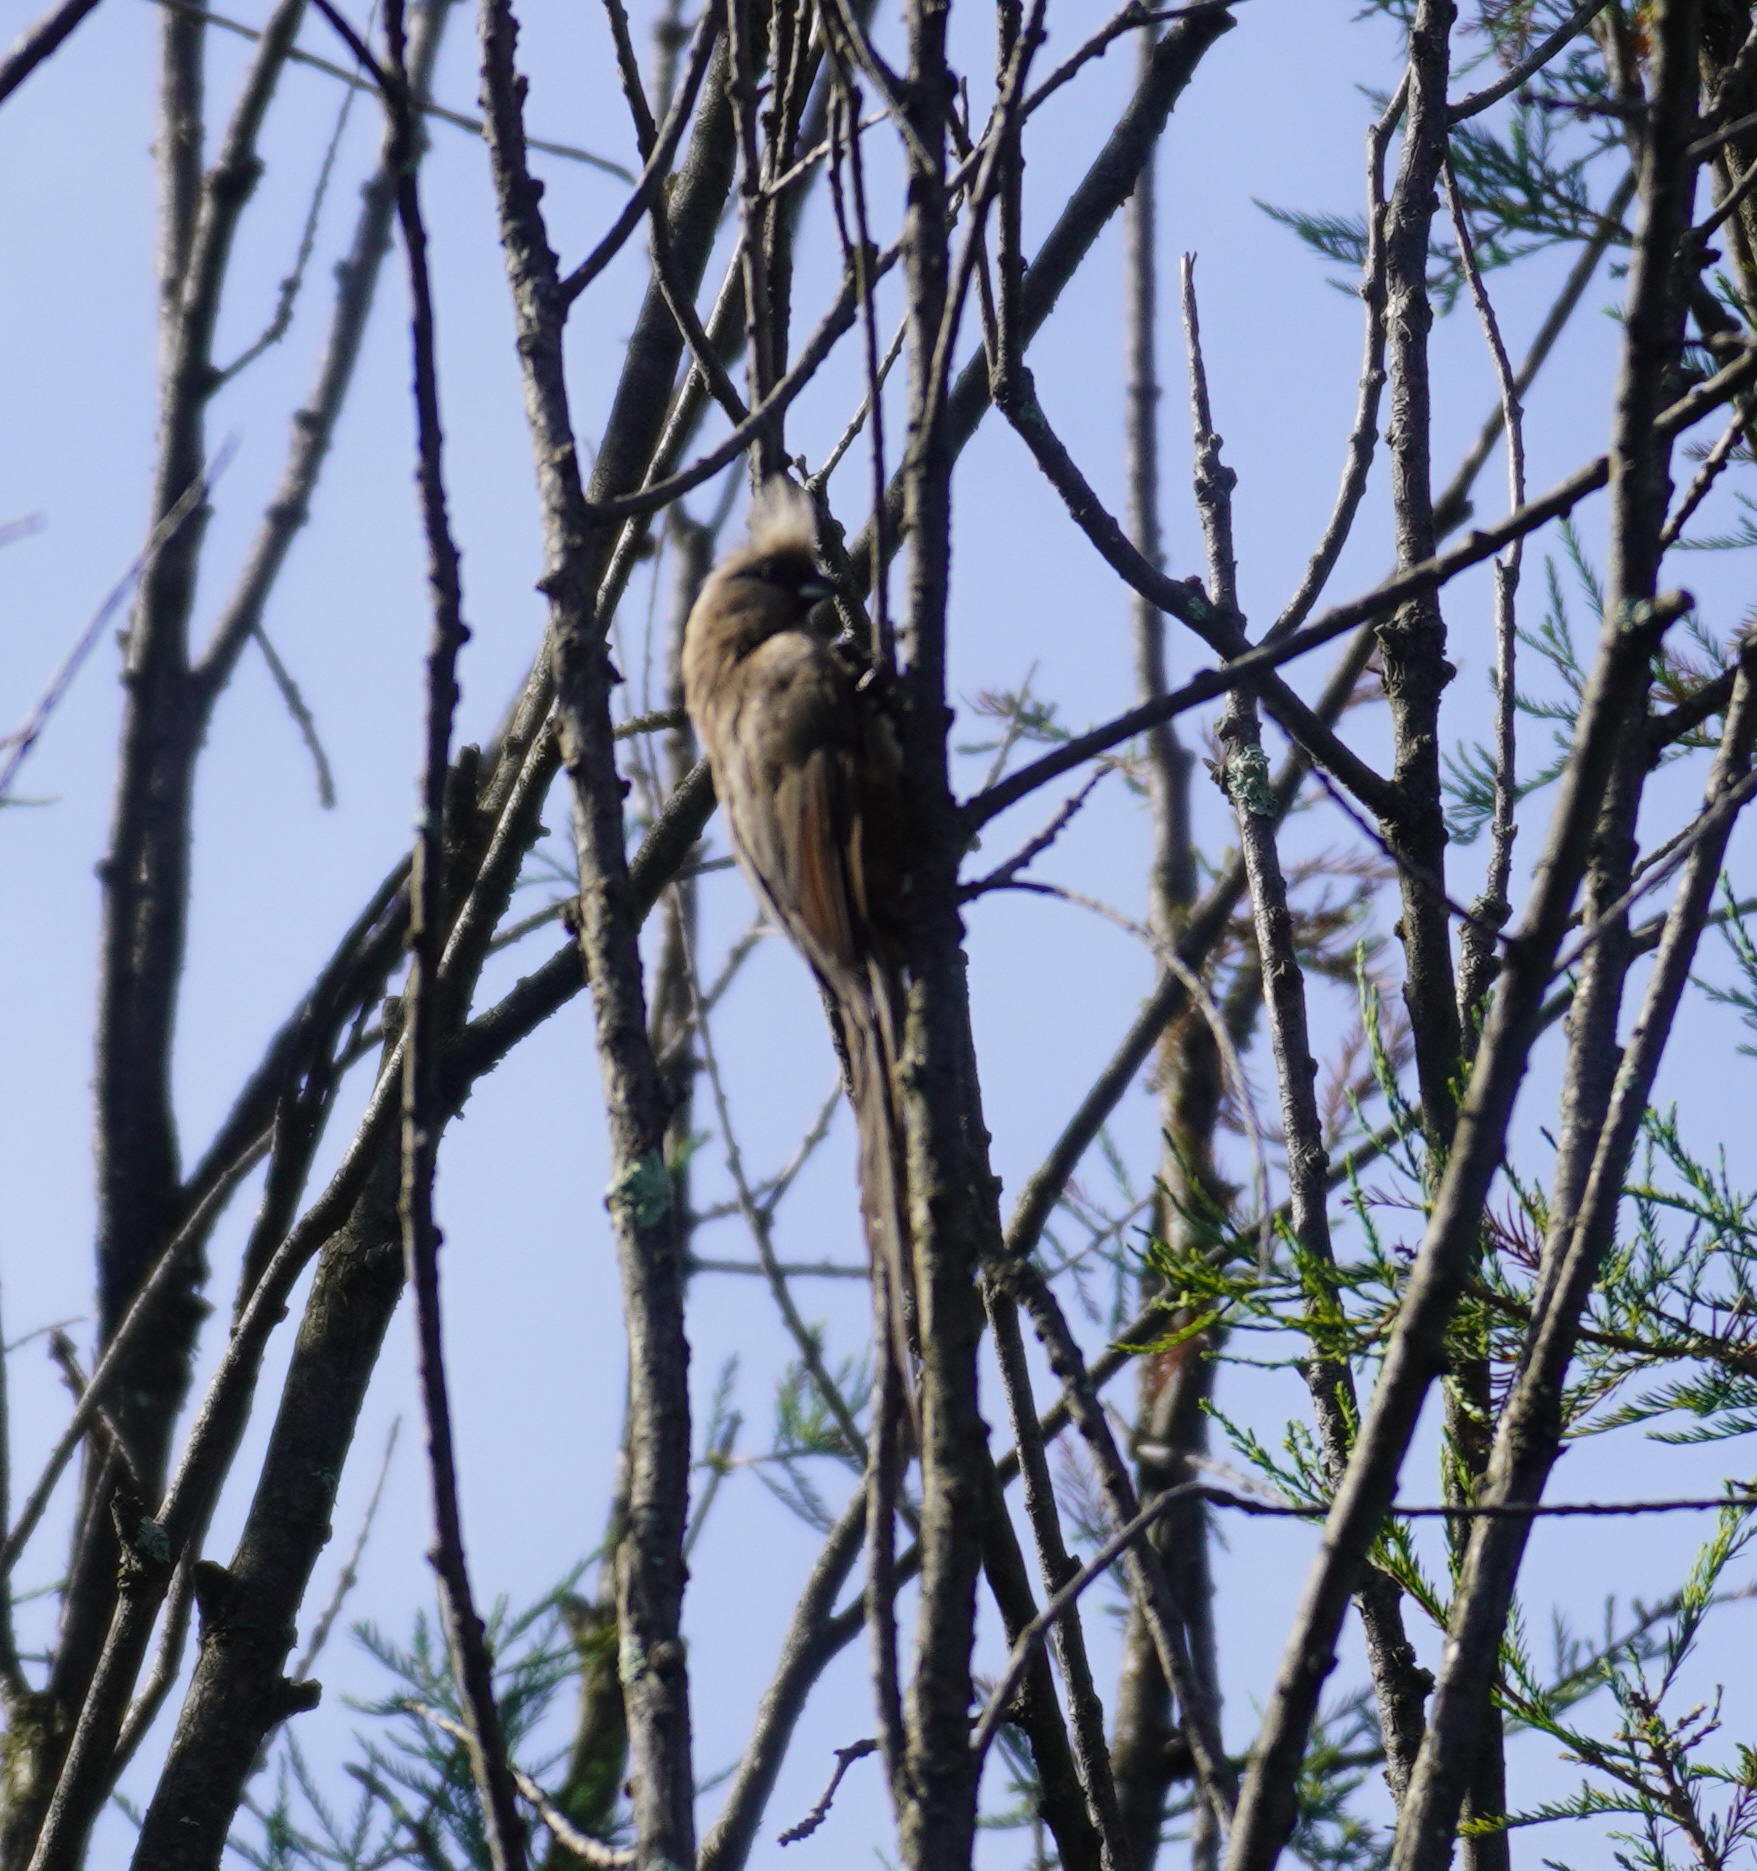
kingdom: Animalia
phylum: Chordata
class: Aves
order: Coliiformes
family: Coliidae
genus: Colius
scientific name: Colius striatus
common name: Speckled mousebird
